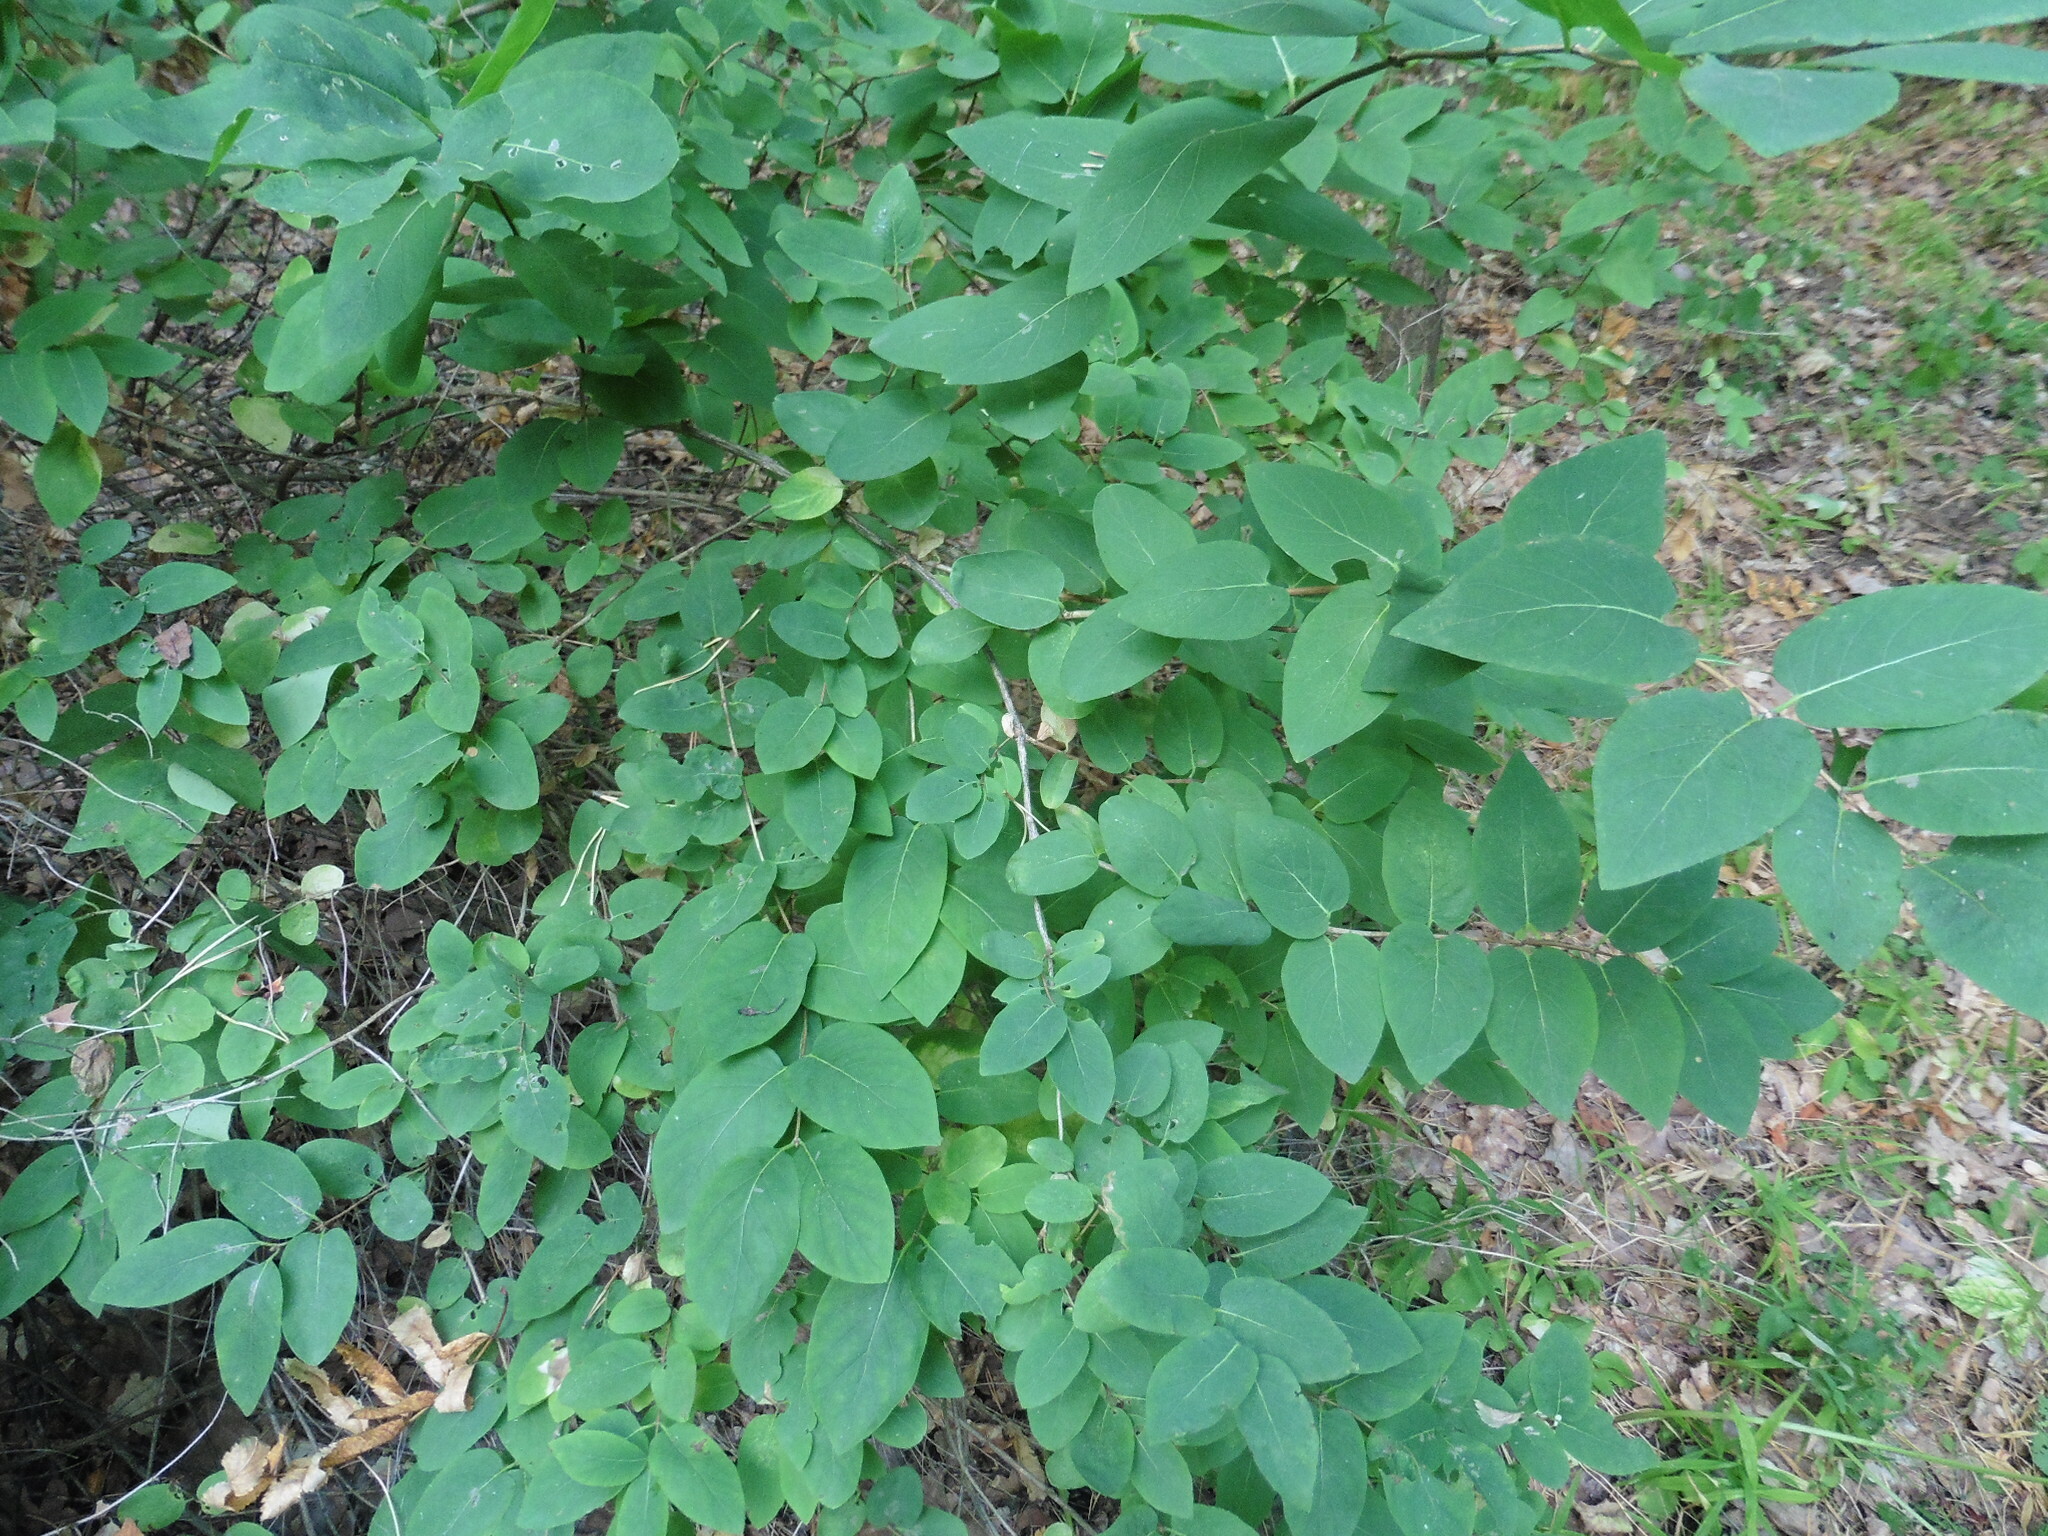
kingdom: Plantae
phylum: Tracheophyta
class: Magnoliopsida
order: Dipsacales
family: Caprifoliaceae
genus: Lonicera
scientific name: Lonicera tatarica
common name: Tatarian honeysuckle
